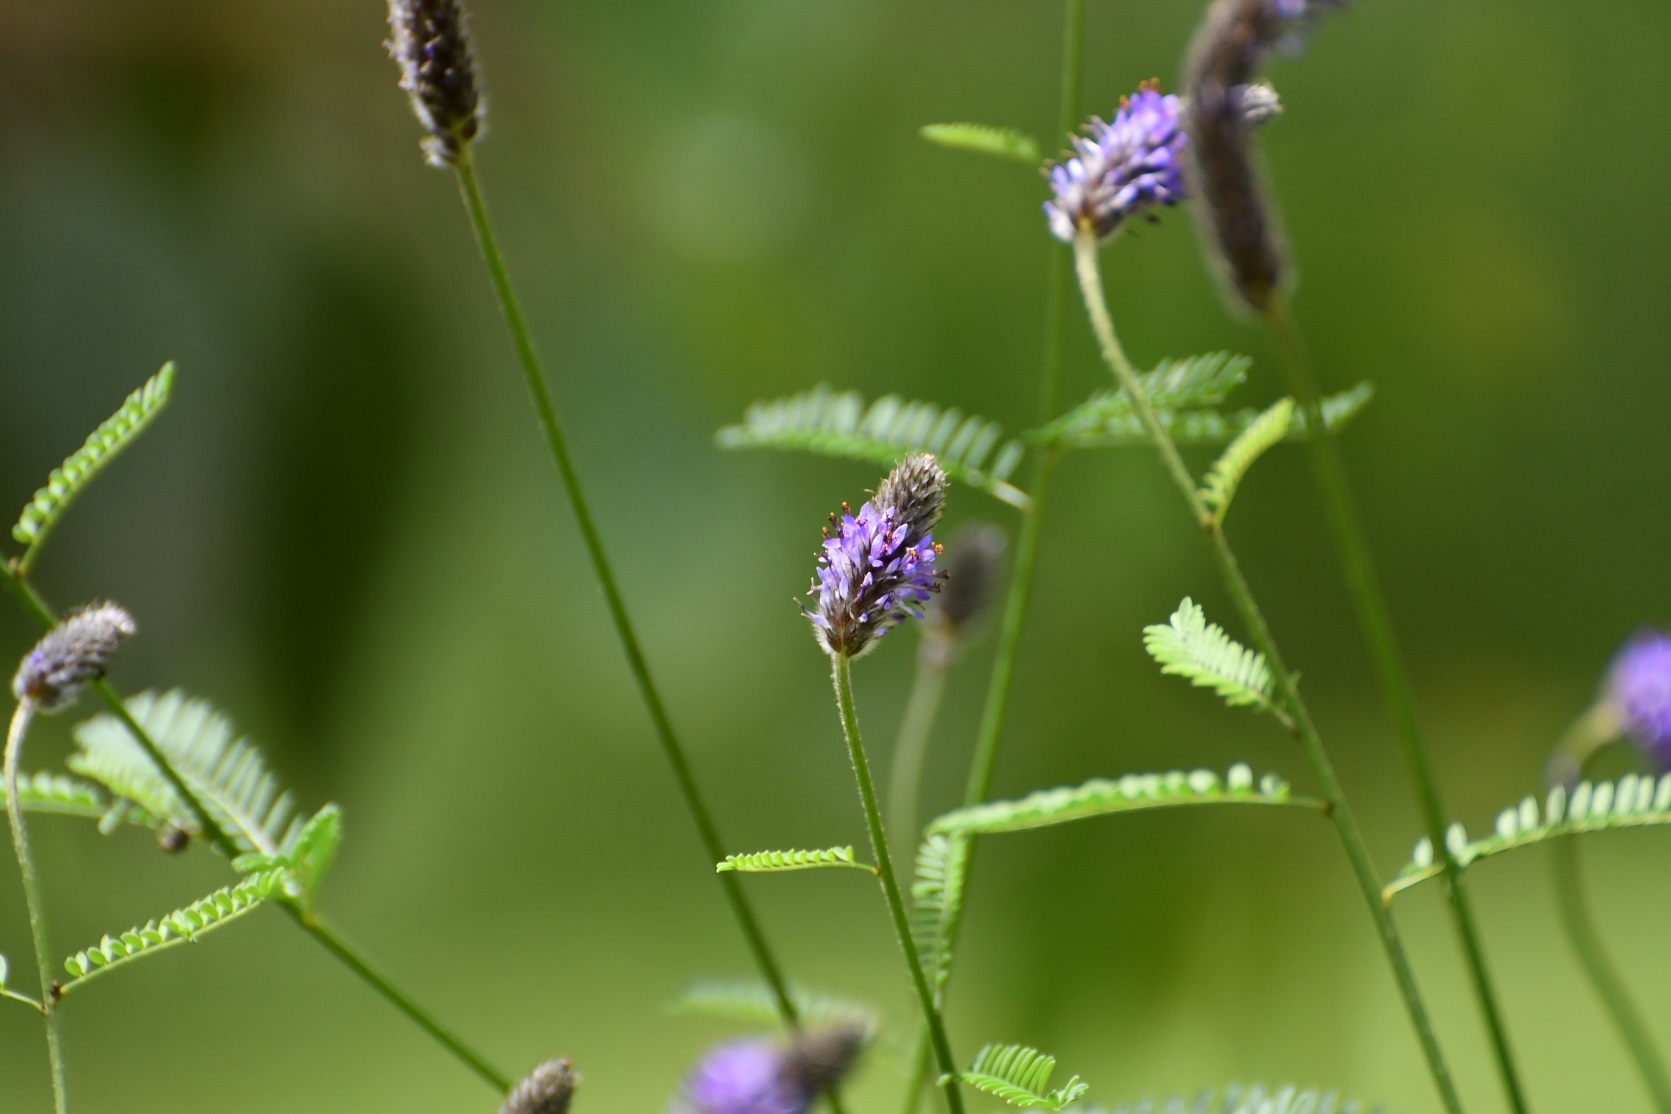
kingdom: Plantae
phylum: Tracheophyta
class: Magnoliopsida
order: Fabales
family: Fabaceae
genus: Dalea
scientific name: Dalea leporina
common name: Foxtail dalea
